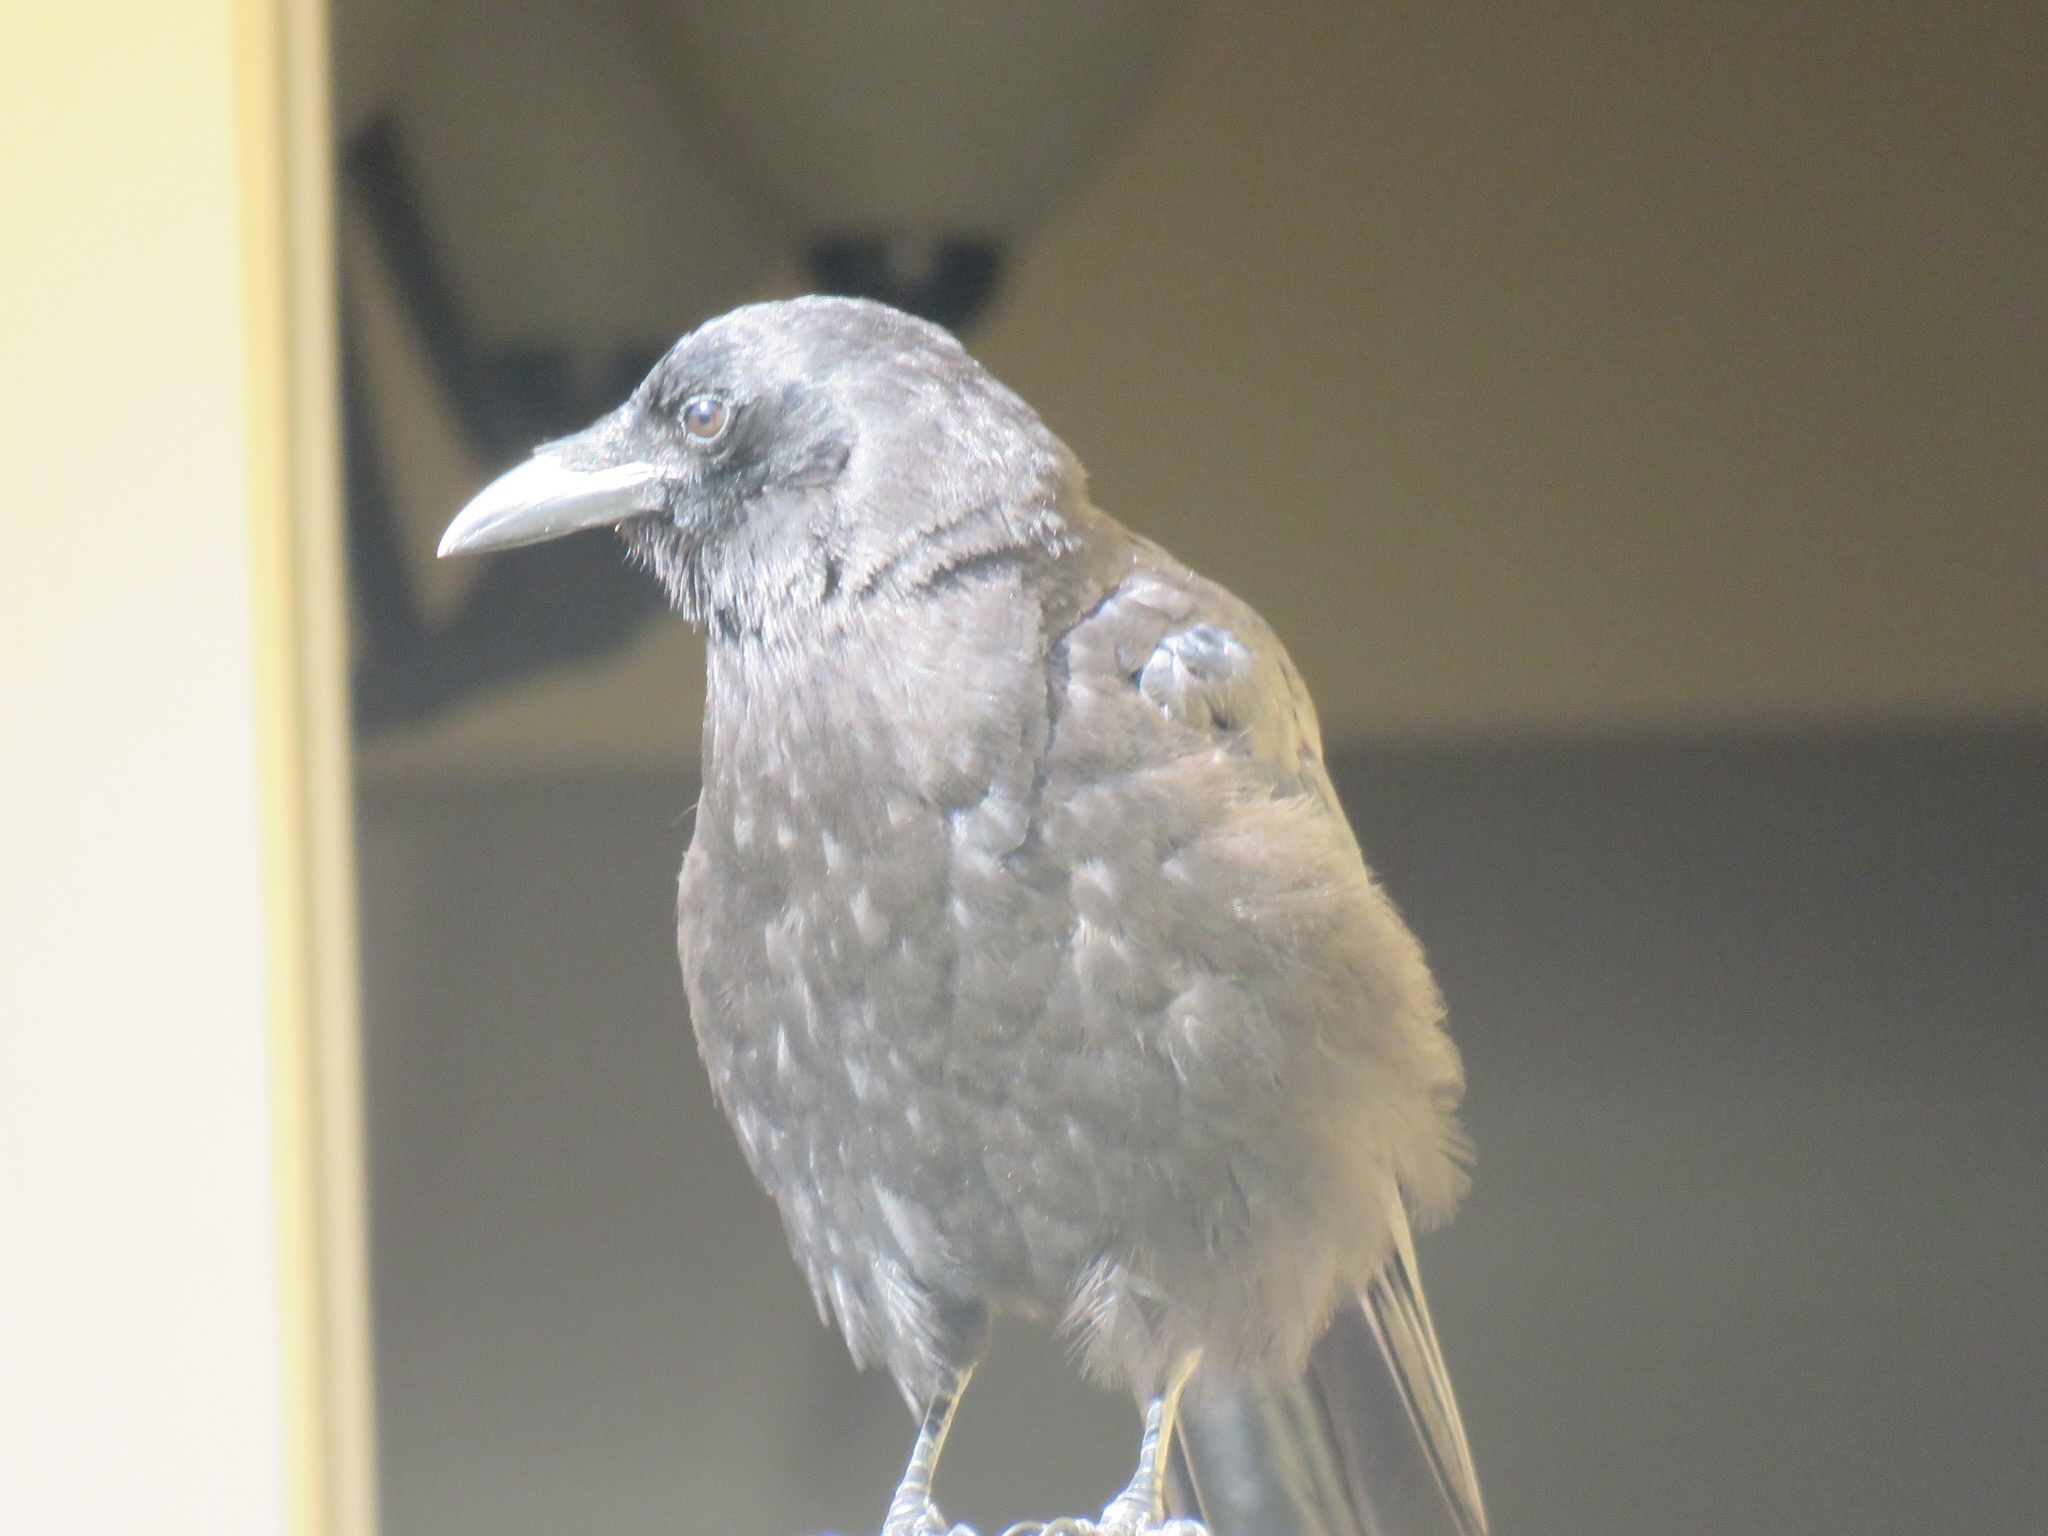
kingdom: Animalia
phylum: Chordata
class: Aves
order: Passeriformes
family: Corvidae
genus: Corvus
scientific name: Corvus brachyrhynchos
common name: American crow
